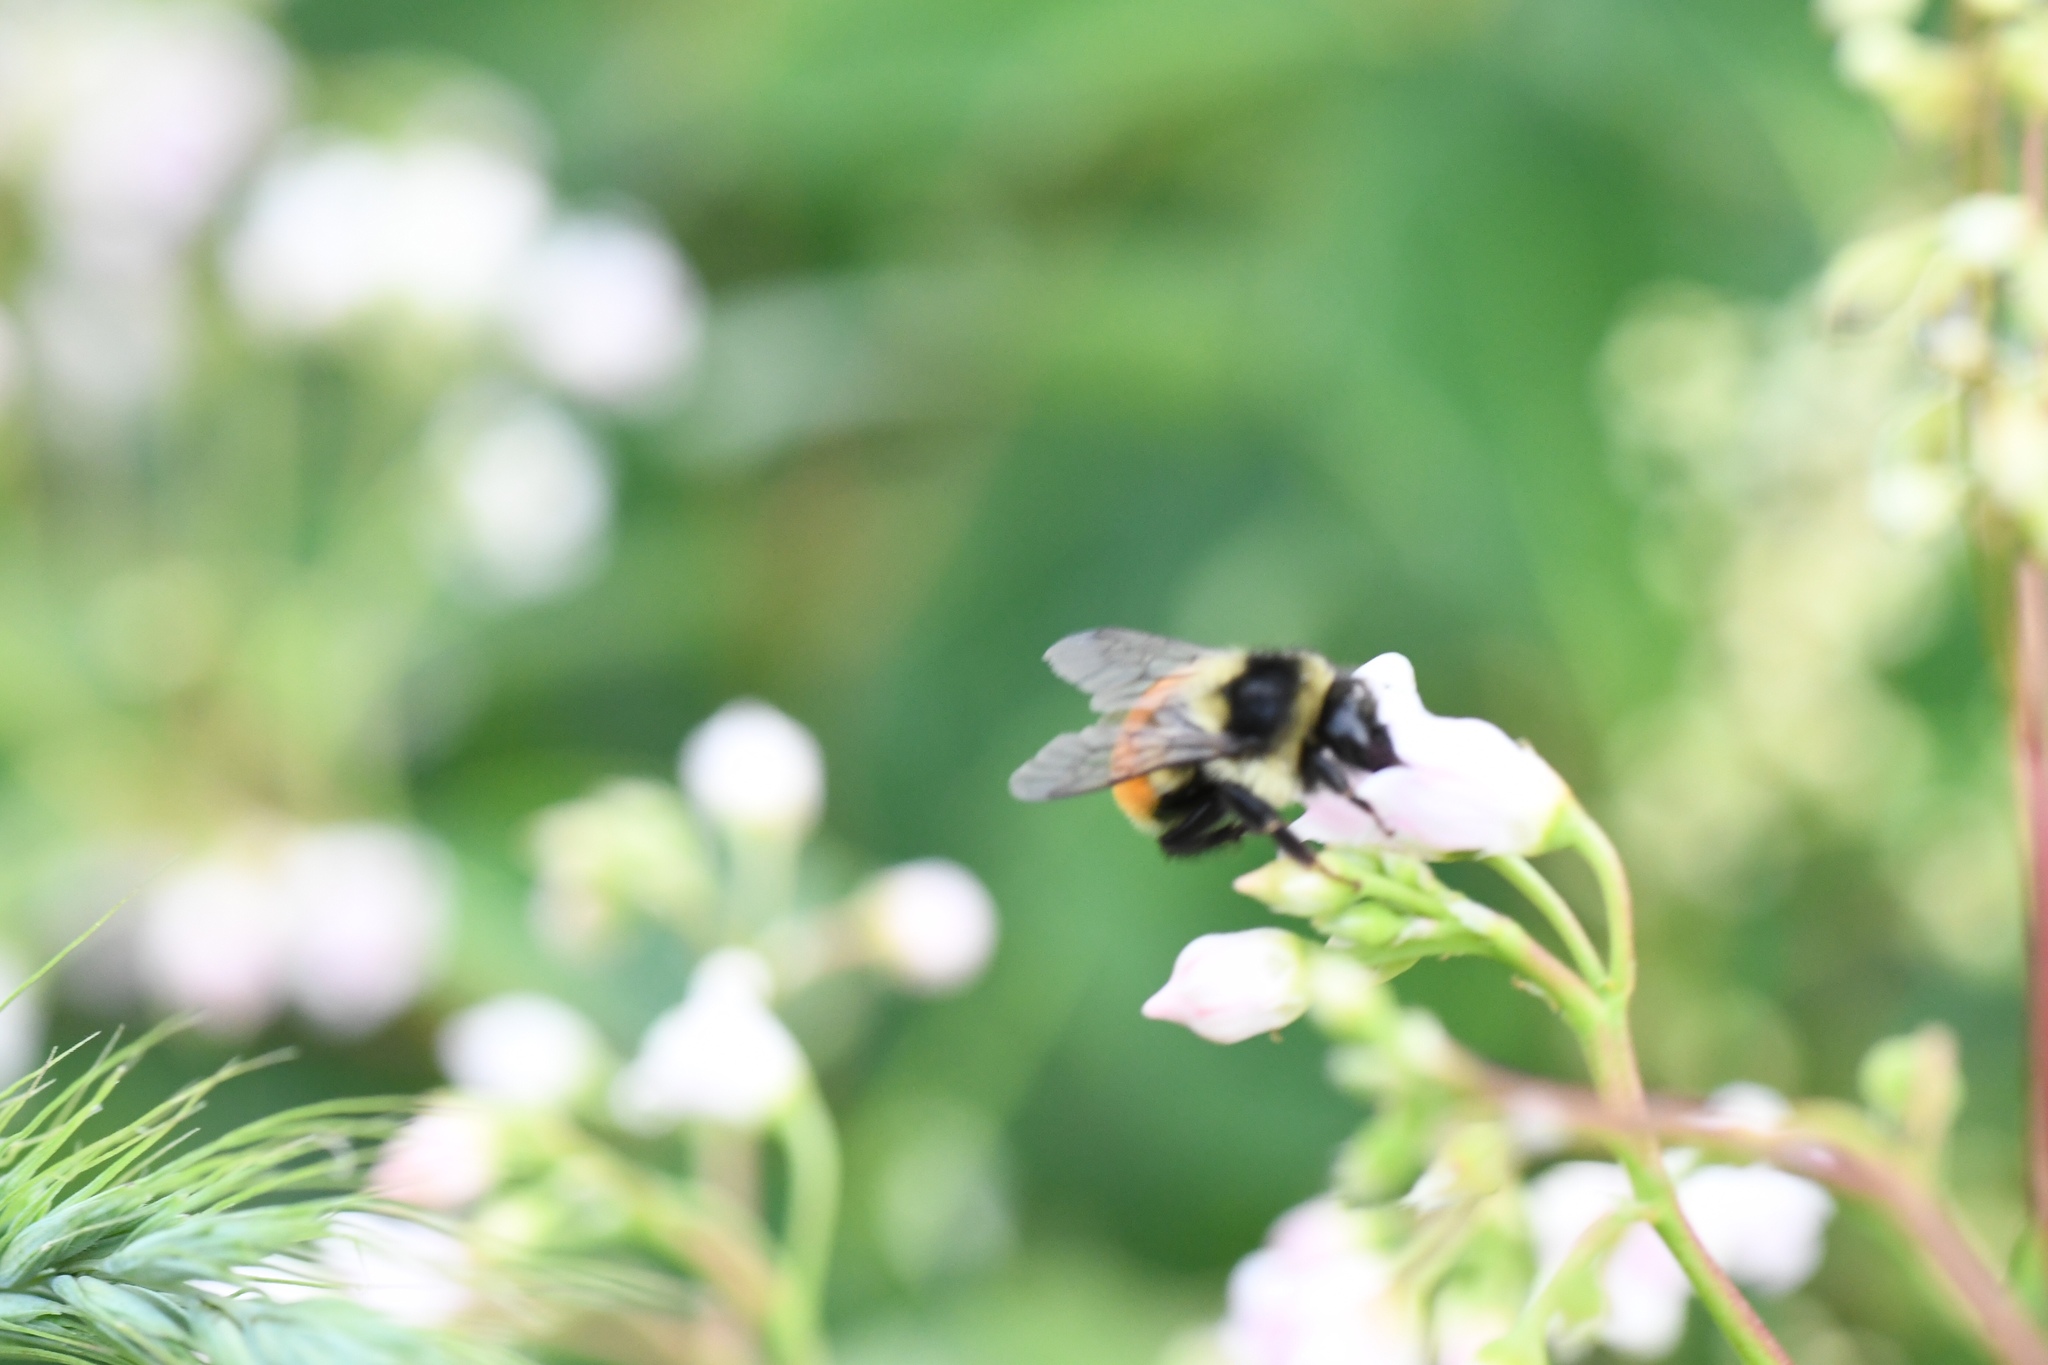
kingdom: Animalia
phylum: Arthropoda
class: Insecta
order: Hymenoptera
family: Apidae
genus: Bombus
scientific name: Bombus ternarius
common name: Tri-colored bumble bee
